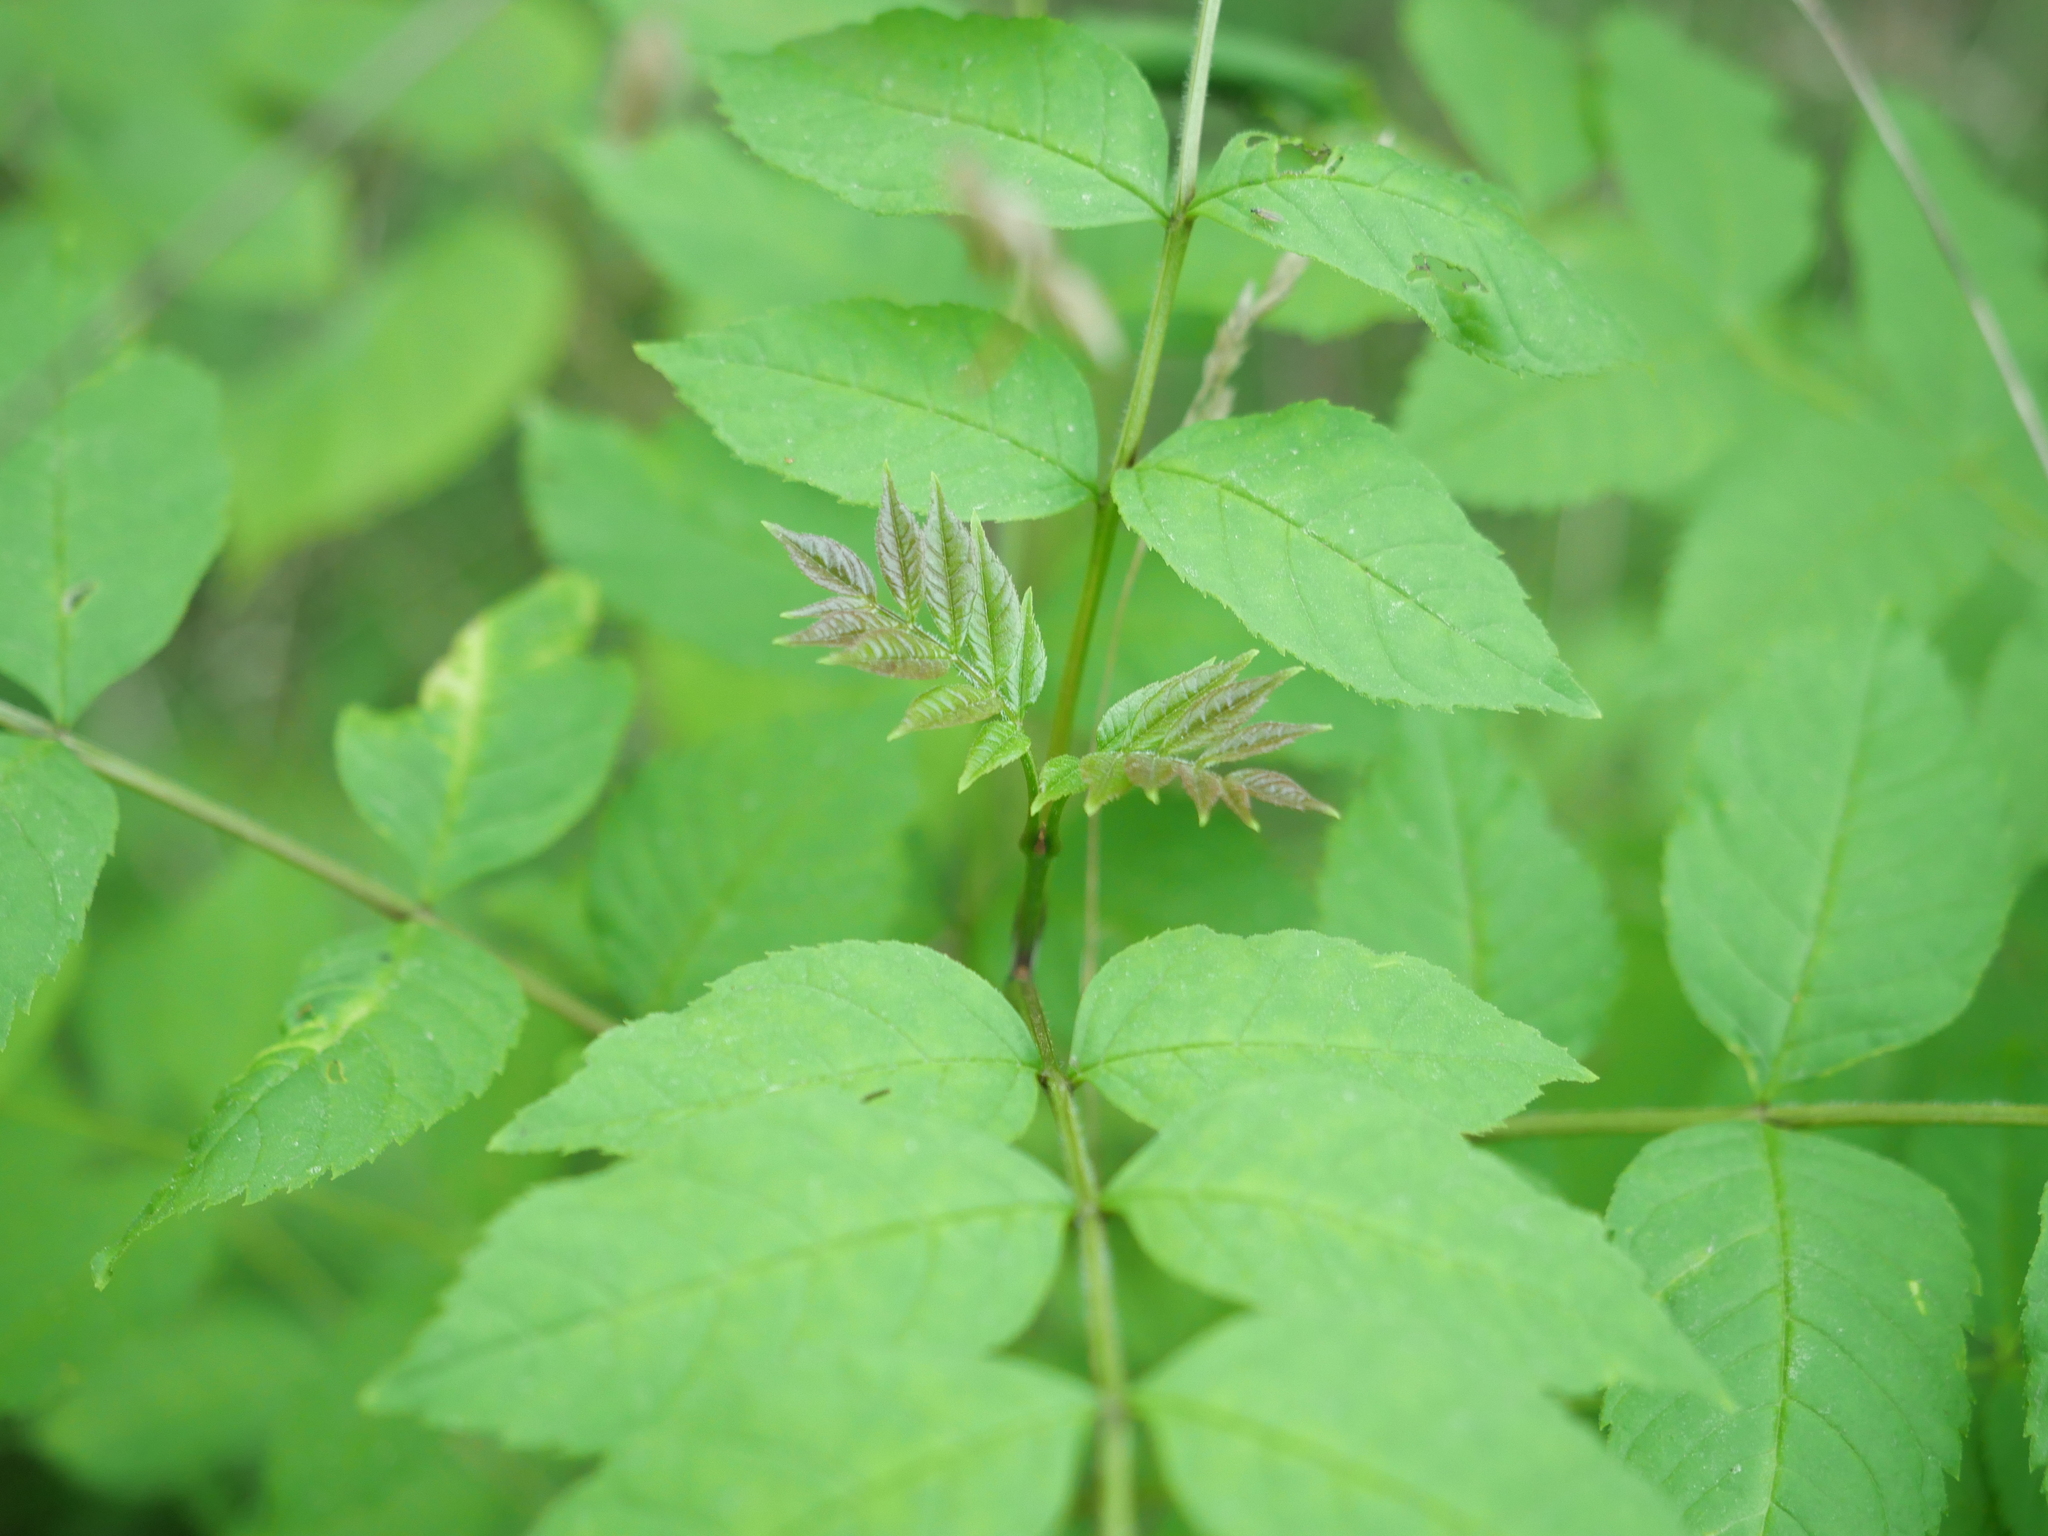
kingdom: Plantae
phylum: Tracheophyta
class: Magnoliopsida
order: Lamiales
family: Oleaceae
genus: Fraxinus
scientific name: Fraxinus excelsior
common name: European ash
